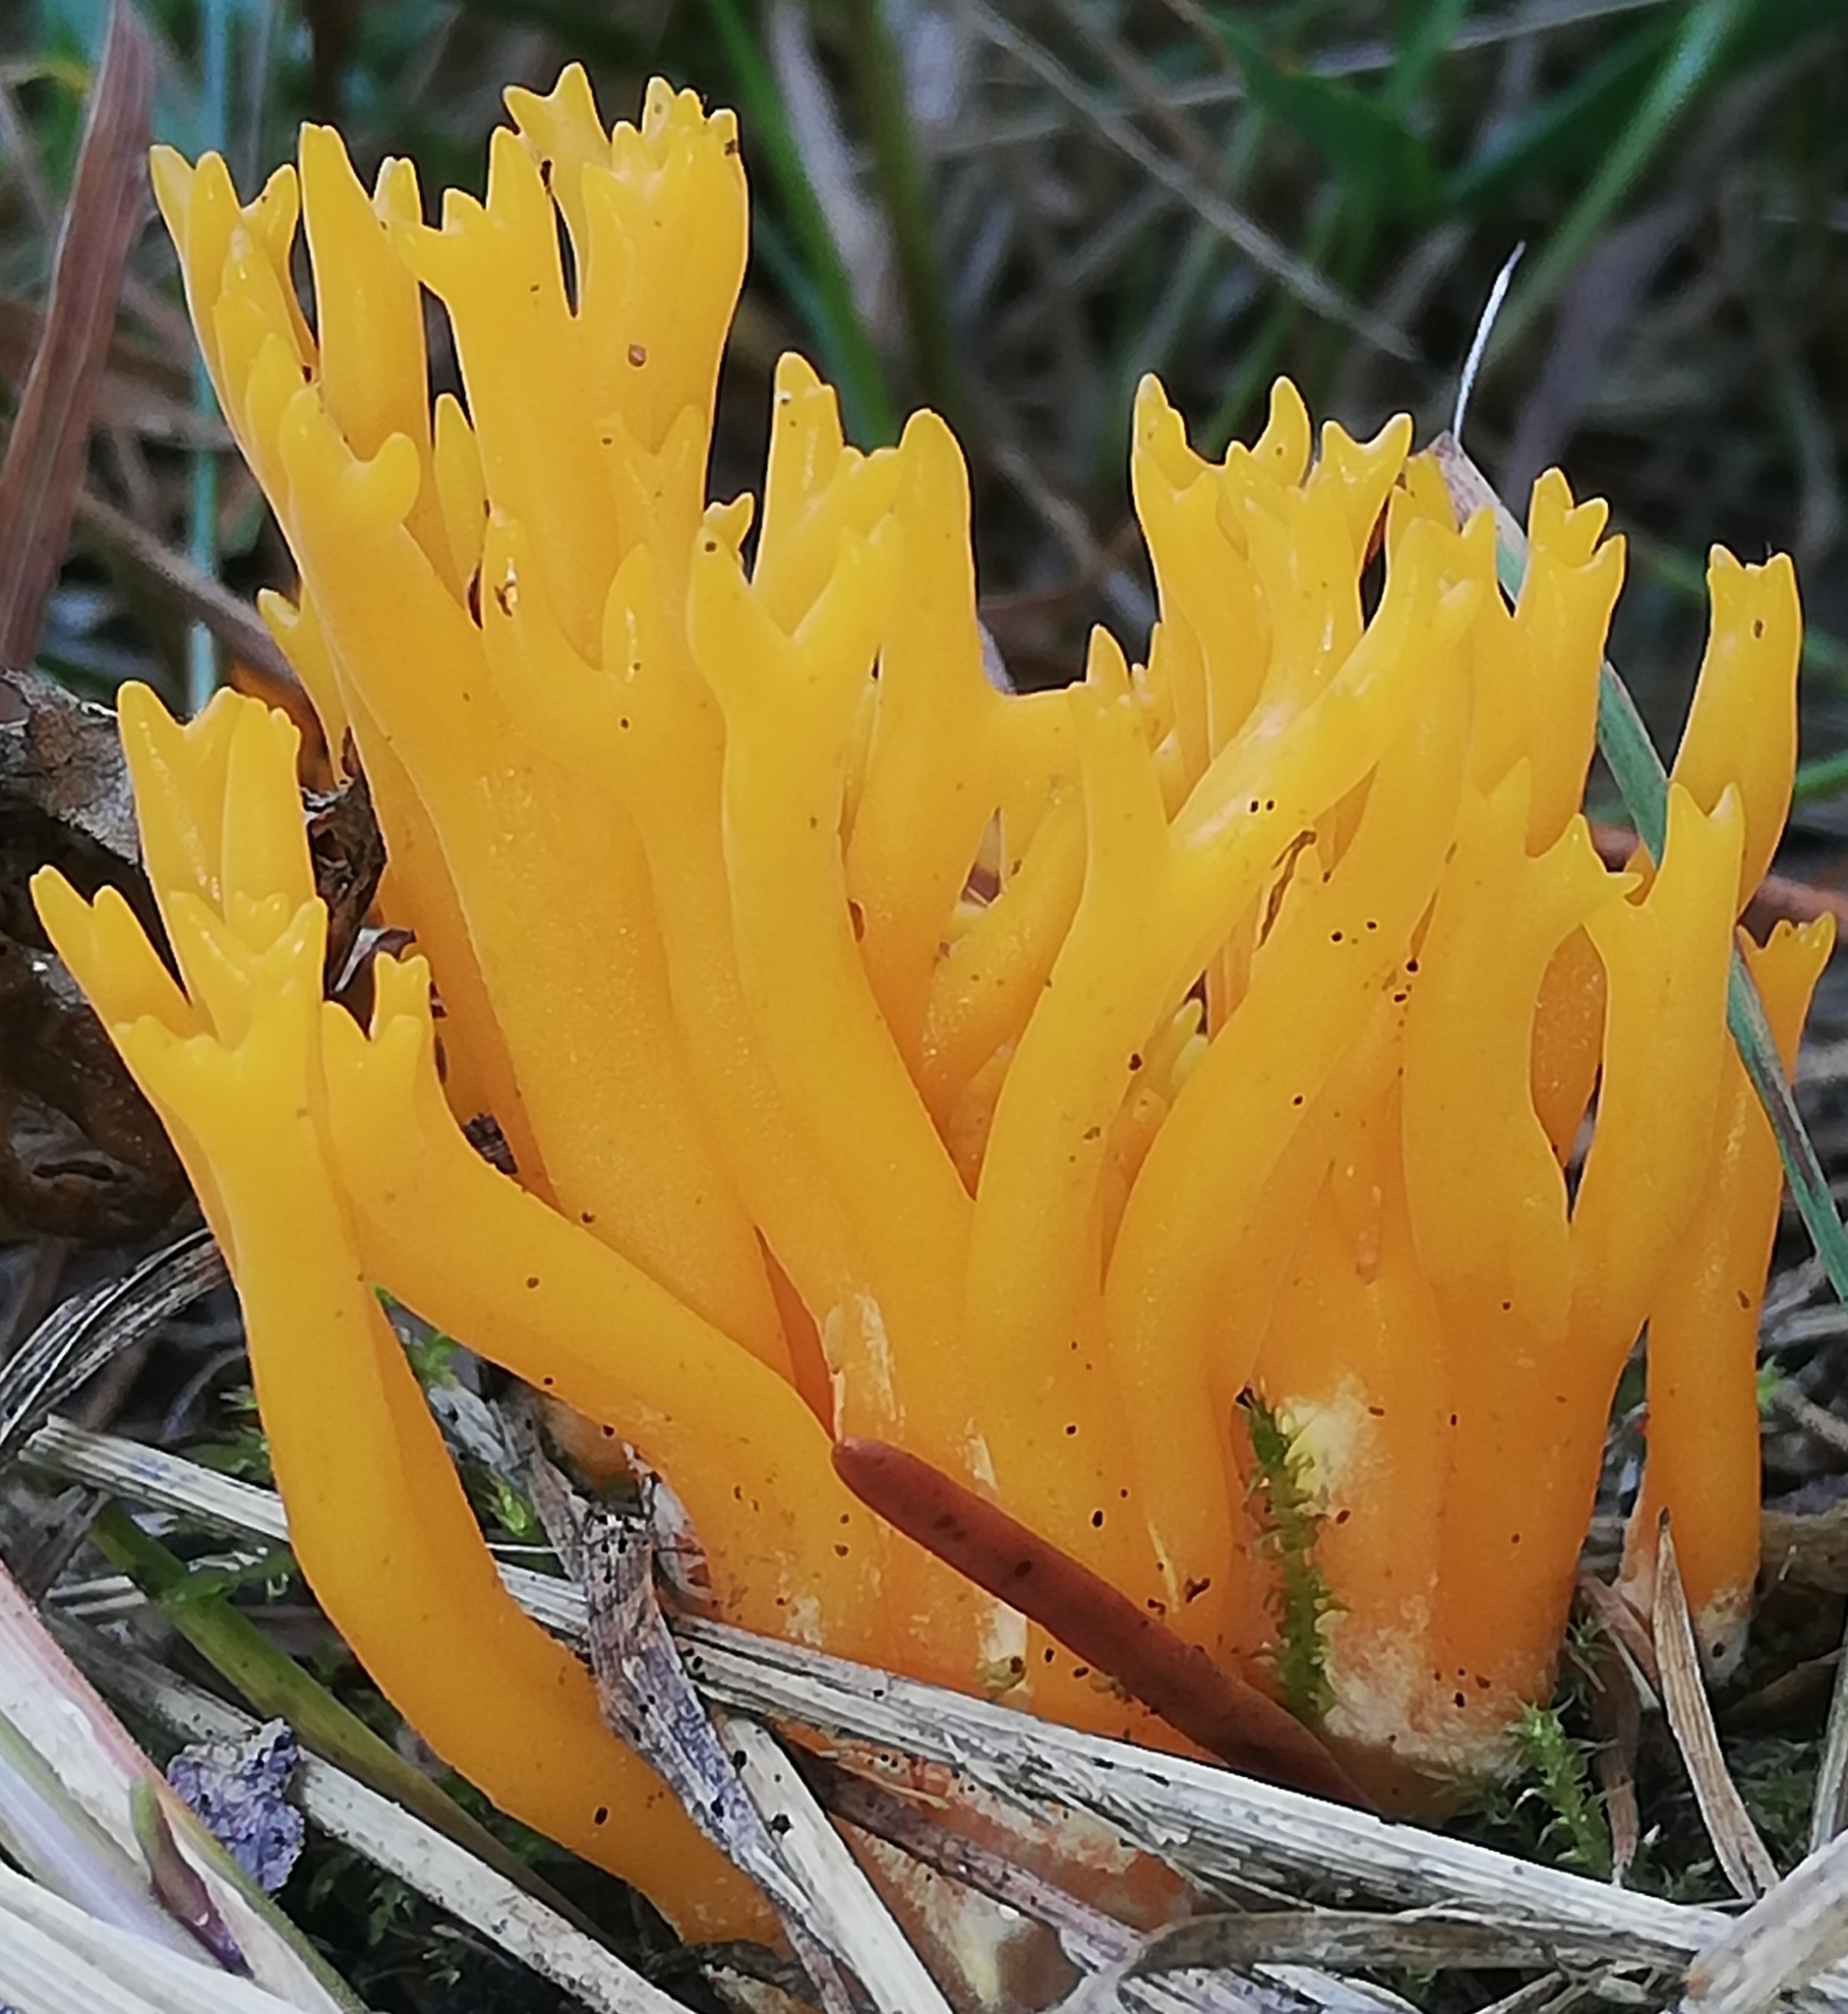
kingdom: Fungi
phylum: Basidiomycota
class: Dacrymycetes
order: Dacrymycetales
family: Dacrymycetaceae
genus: Calocera
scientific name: Calocera viscosa
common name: Yellow stagshorn
